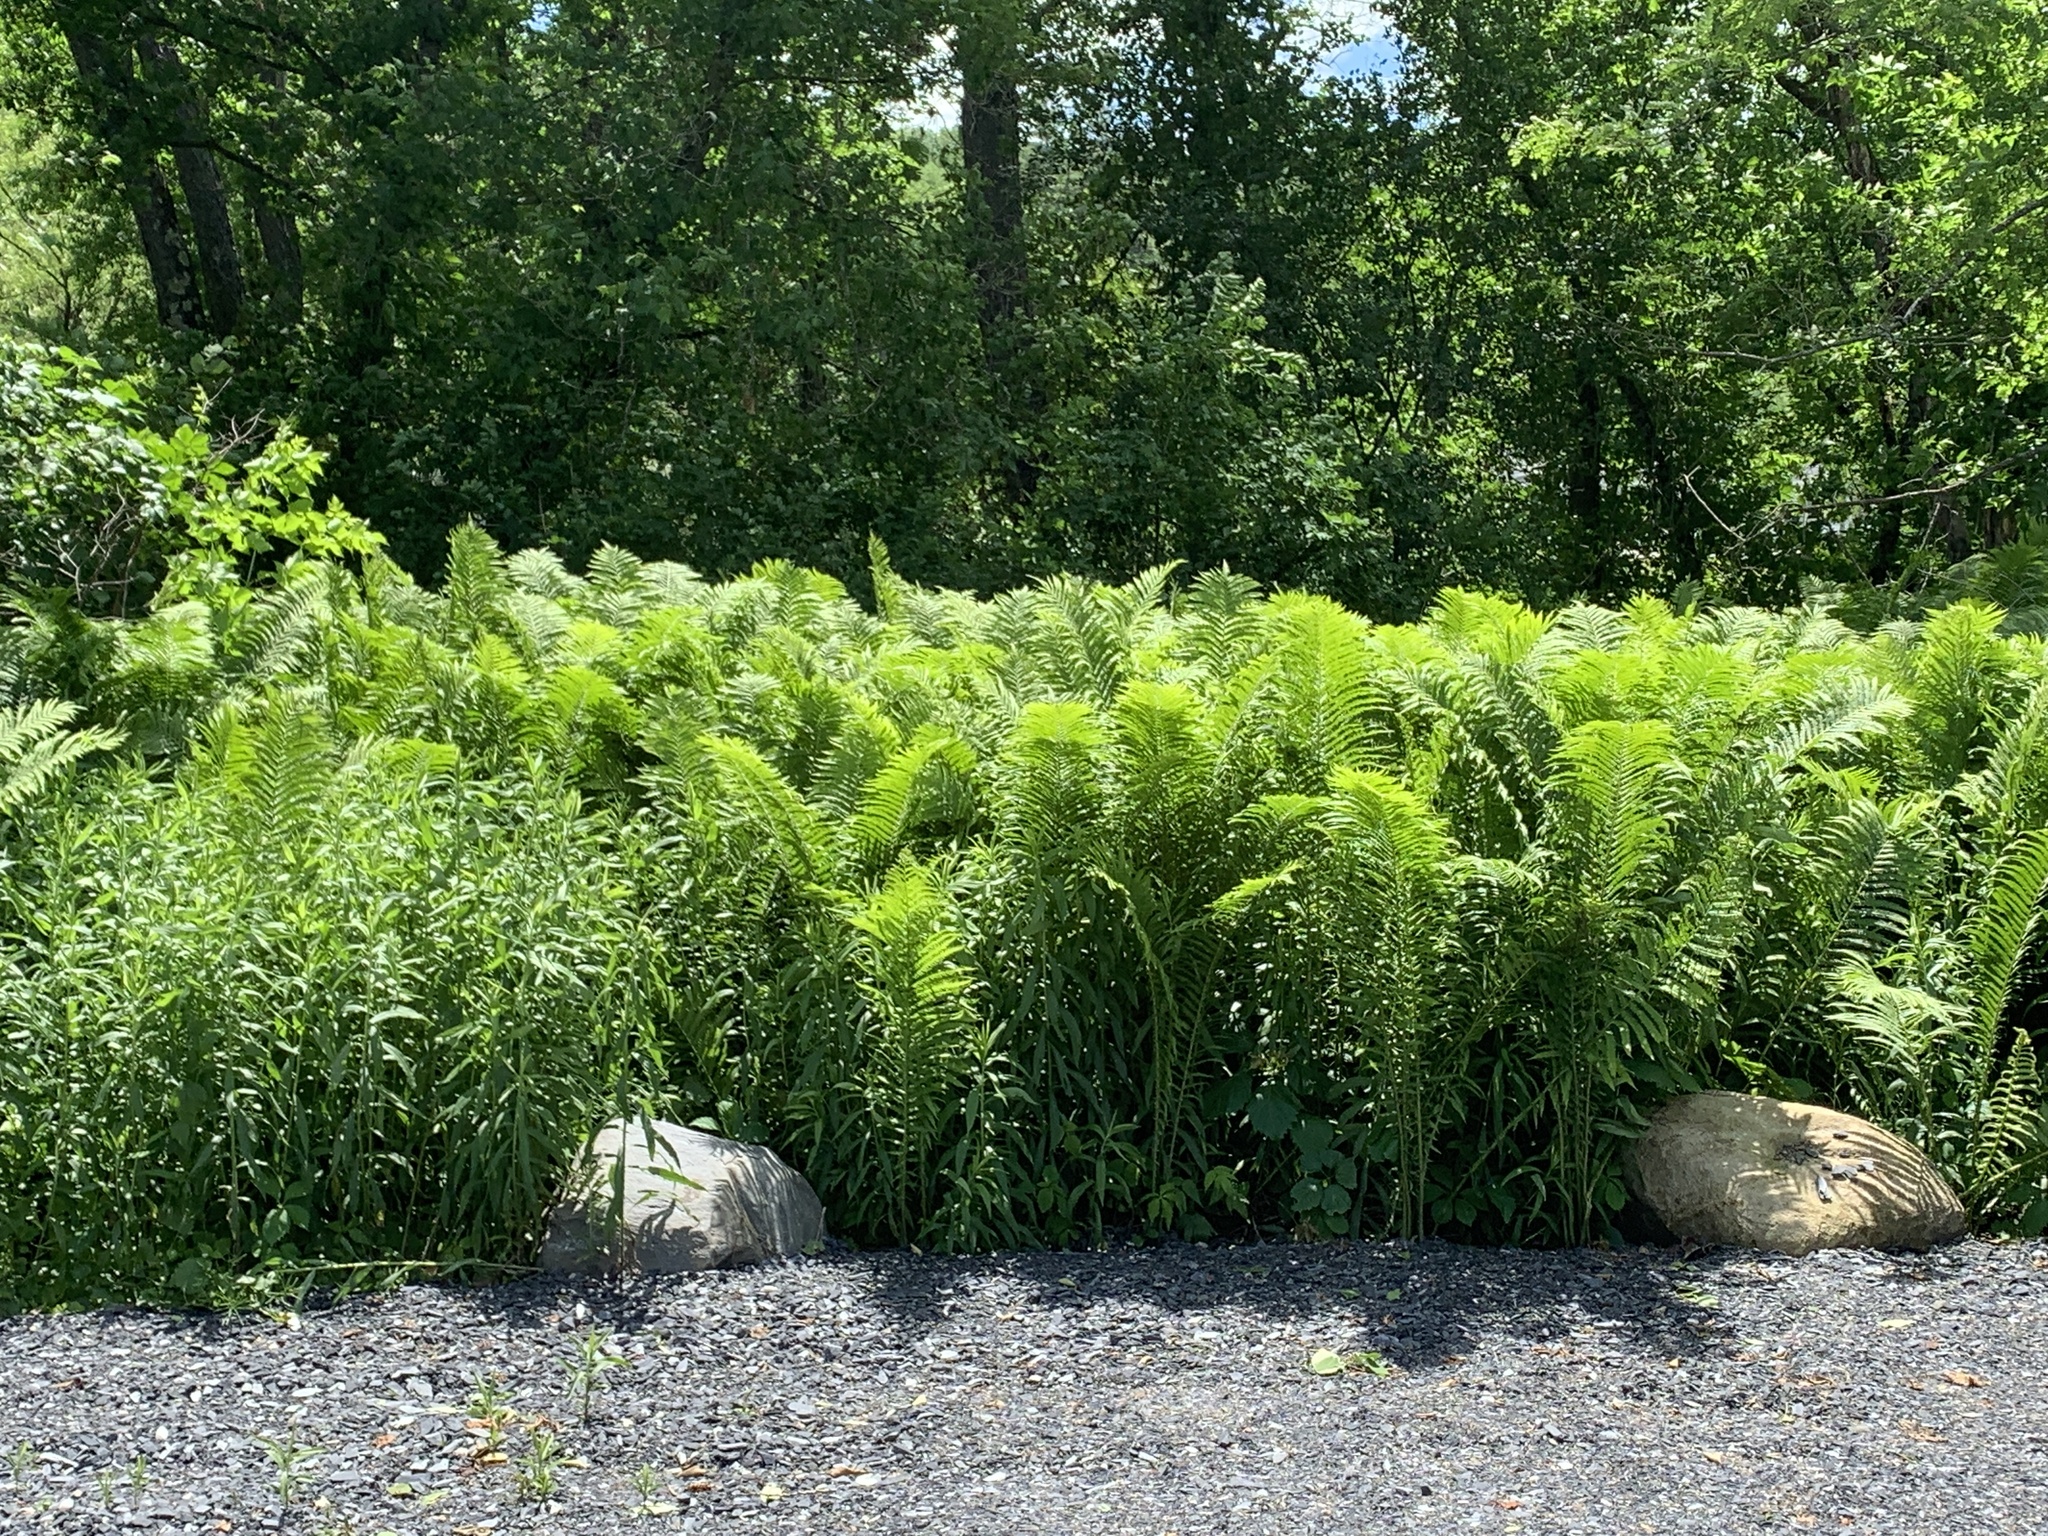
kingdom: Plantae
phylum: Tracheophyta
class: Polypodiopsida
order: Polypodiales
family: Onocleaceae
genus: Matteuccia
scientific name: Matteuccia struthiopteris
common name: Ostrich fern
